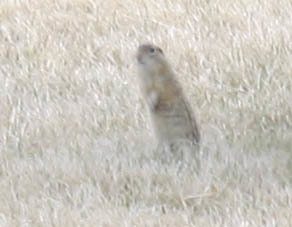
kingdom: Animalia
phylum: Chordata
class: Mammalia
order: Rodentia
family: Sciuridae
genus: Ictidomys
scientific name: Ictidomys tridecemlineatus
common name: Thirteen-lined ground squirrel
